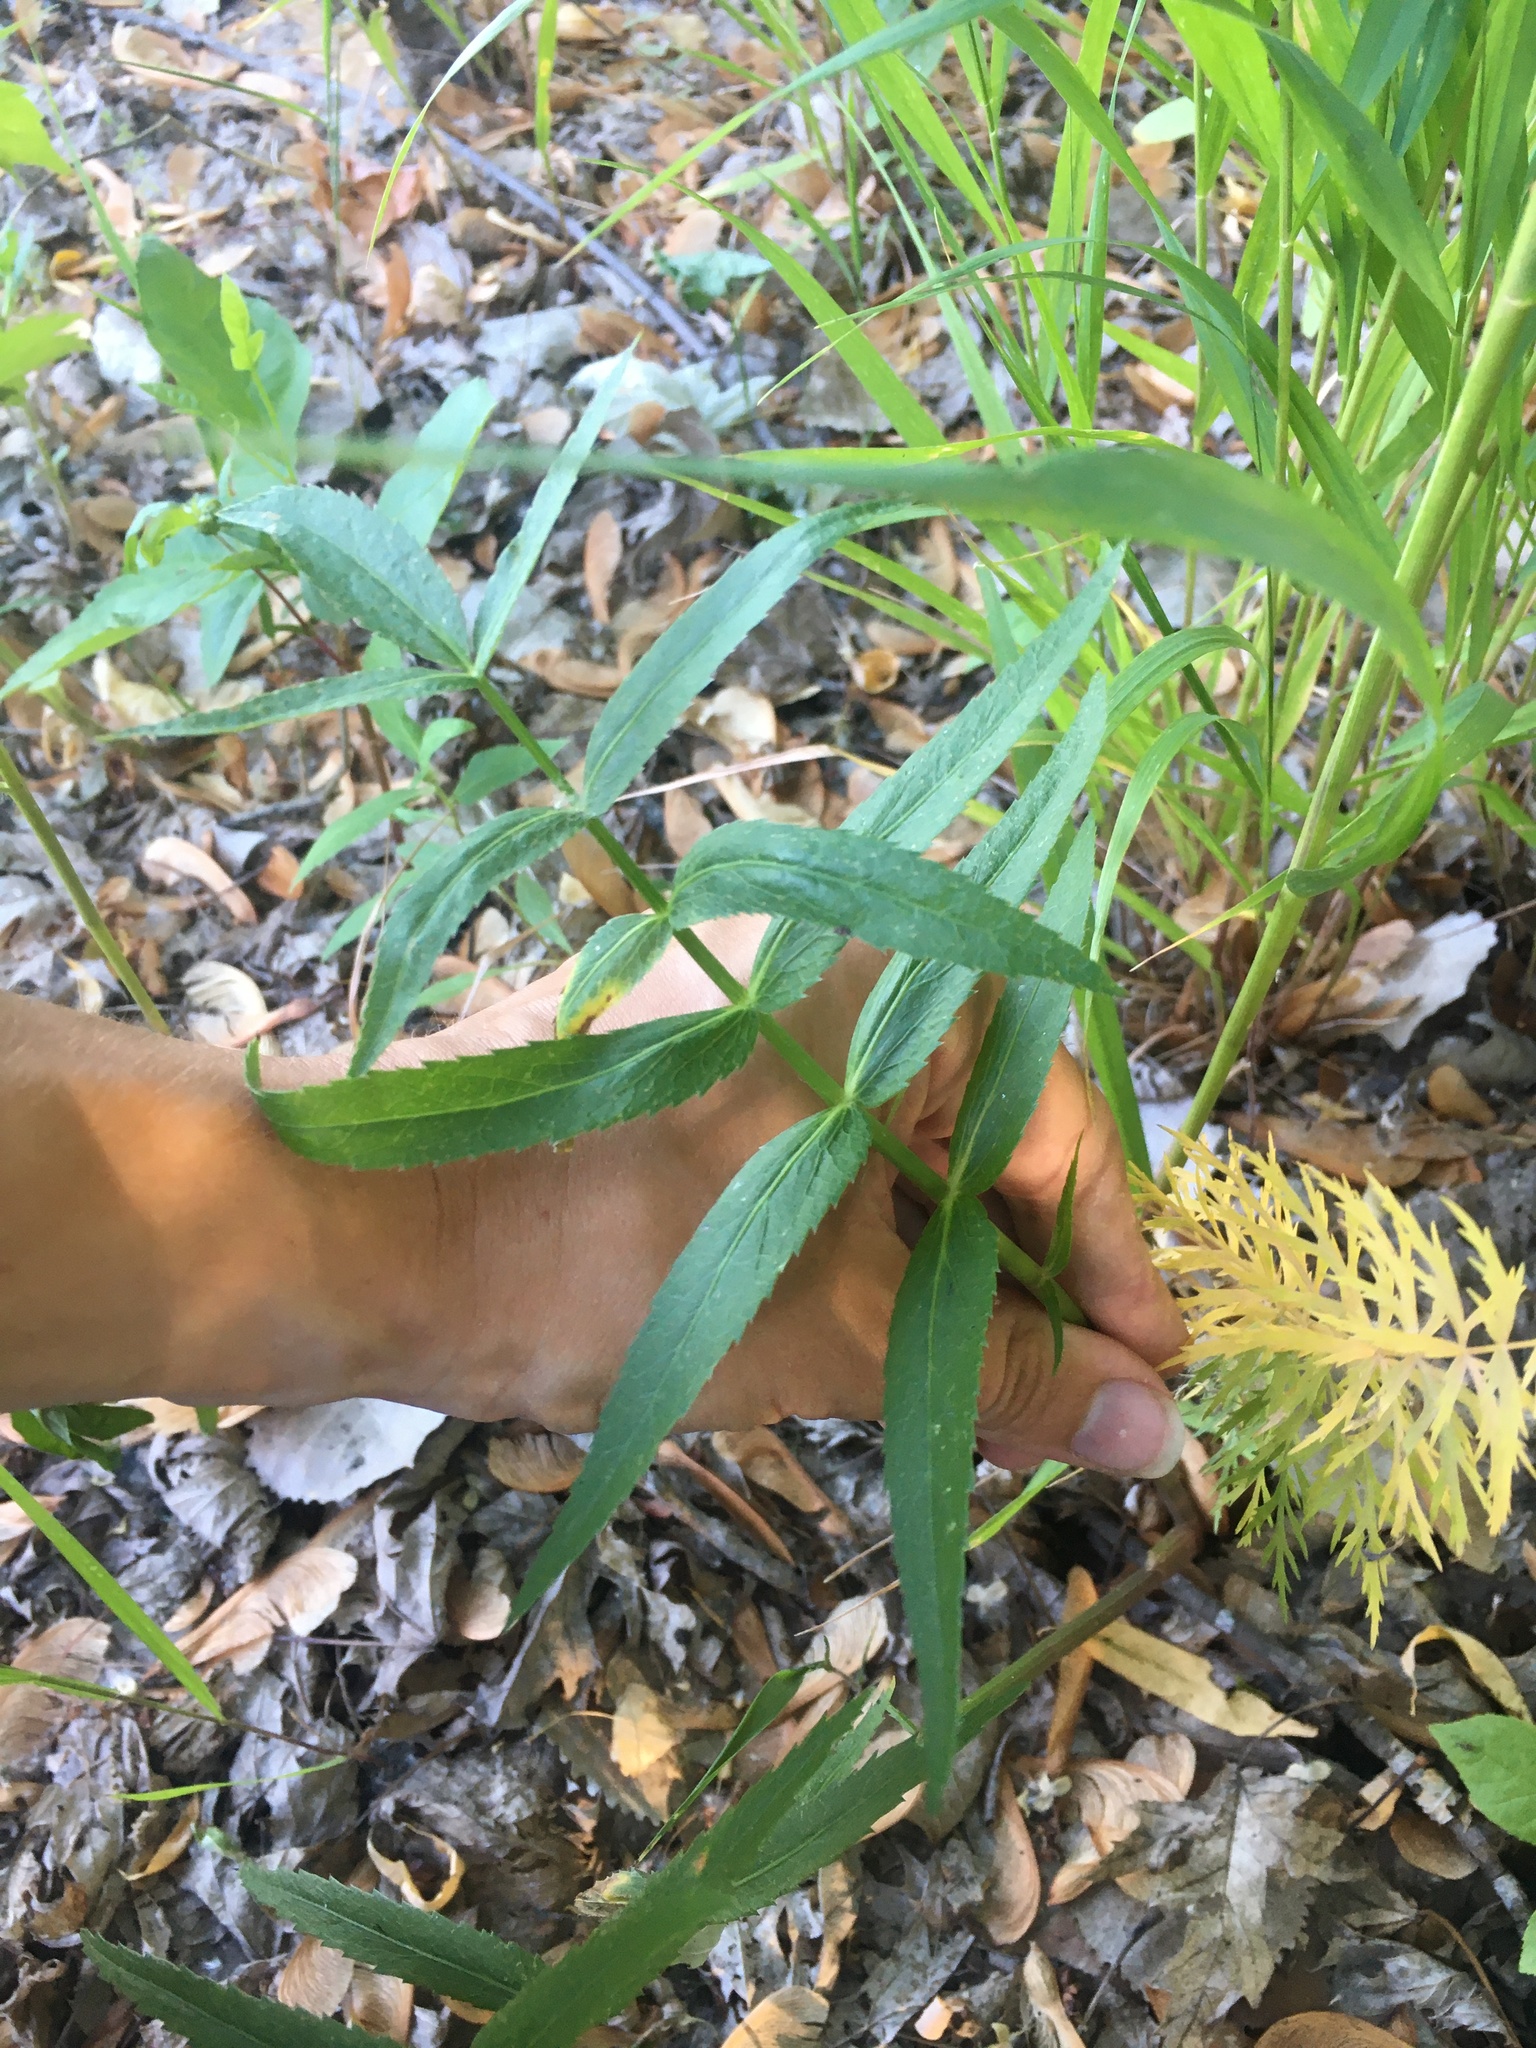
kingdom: Plantae
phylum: Tracheophyta
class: Magnoliopsida
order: Apiales
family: Apiaceae
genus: Sium
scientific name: Sium suave
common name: Hemlock water-parsnip
